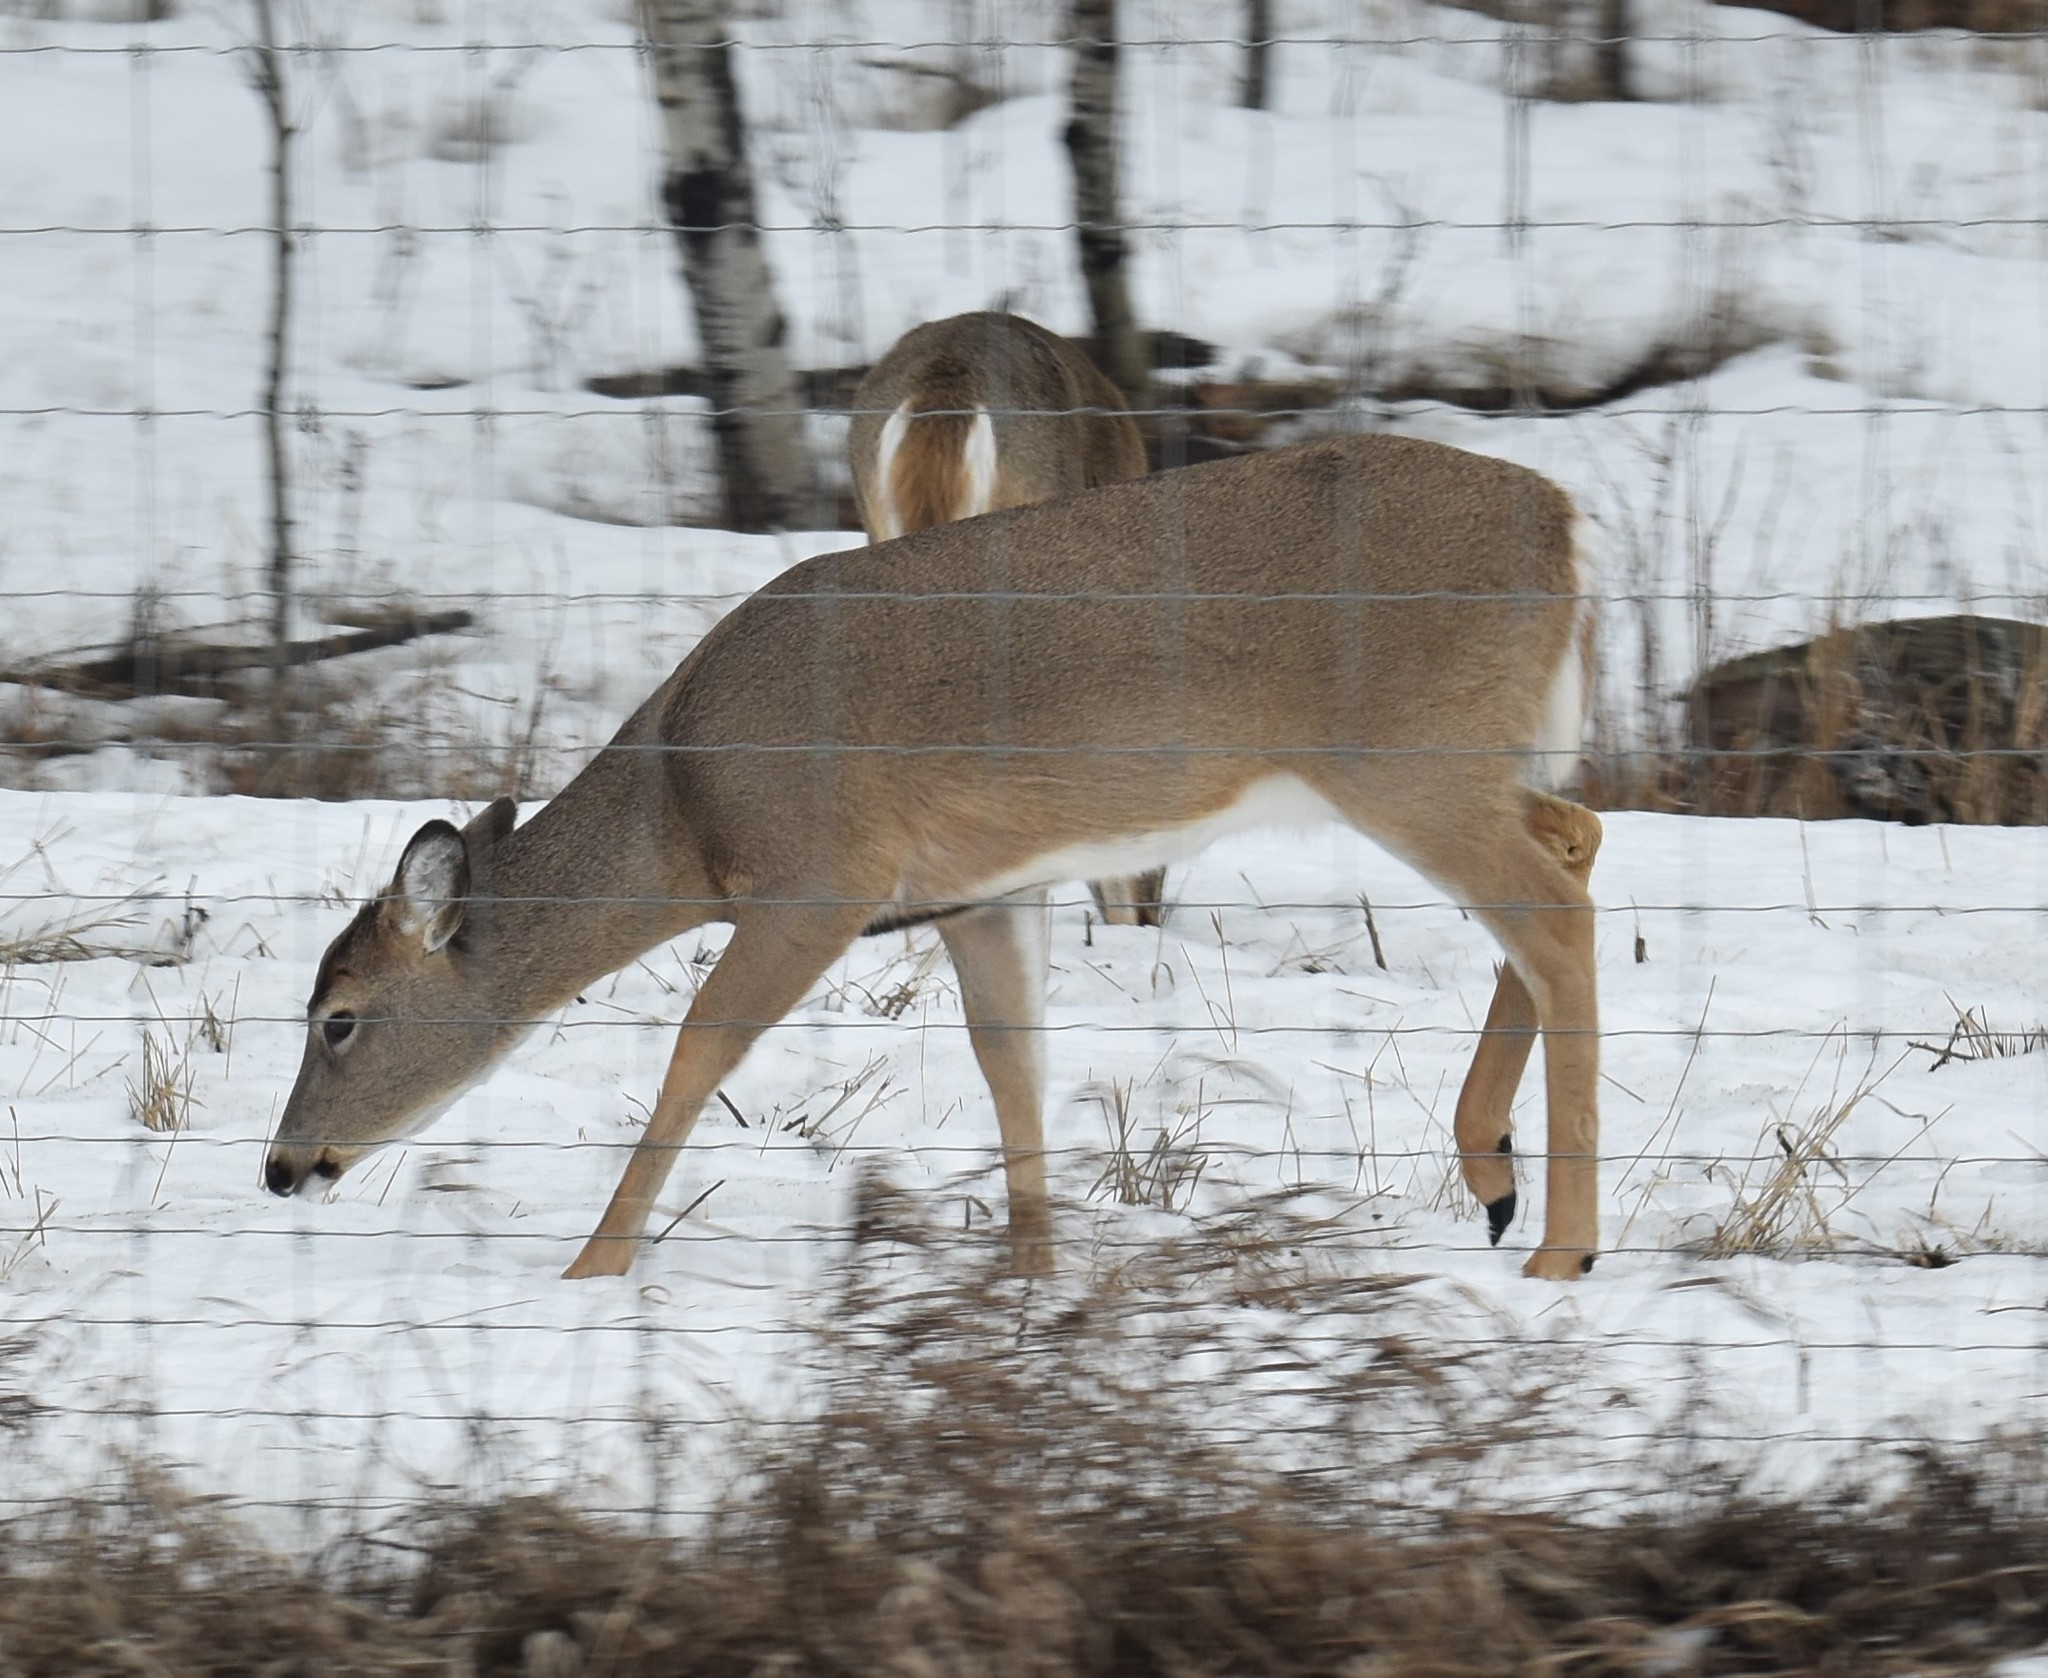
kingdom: Animalia
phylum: Chordata
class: Mammalia
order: Artiodactyla
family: Cervidae
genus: Odocoileus
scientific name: Odocoileus virginianus
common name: White-tailed deer
